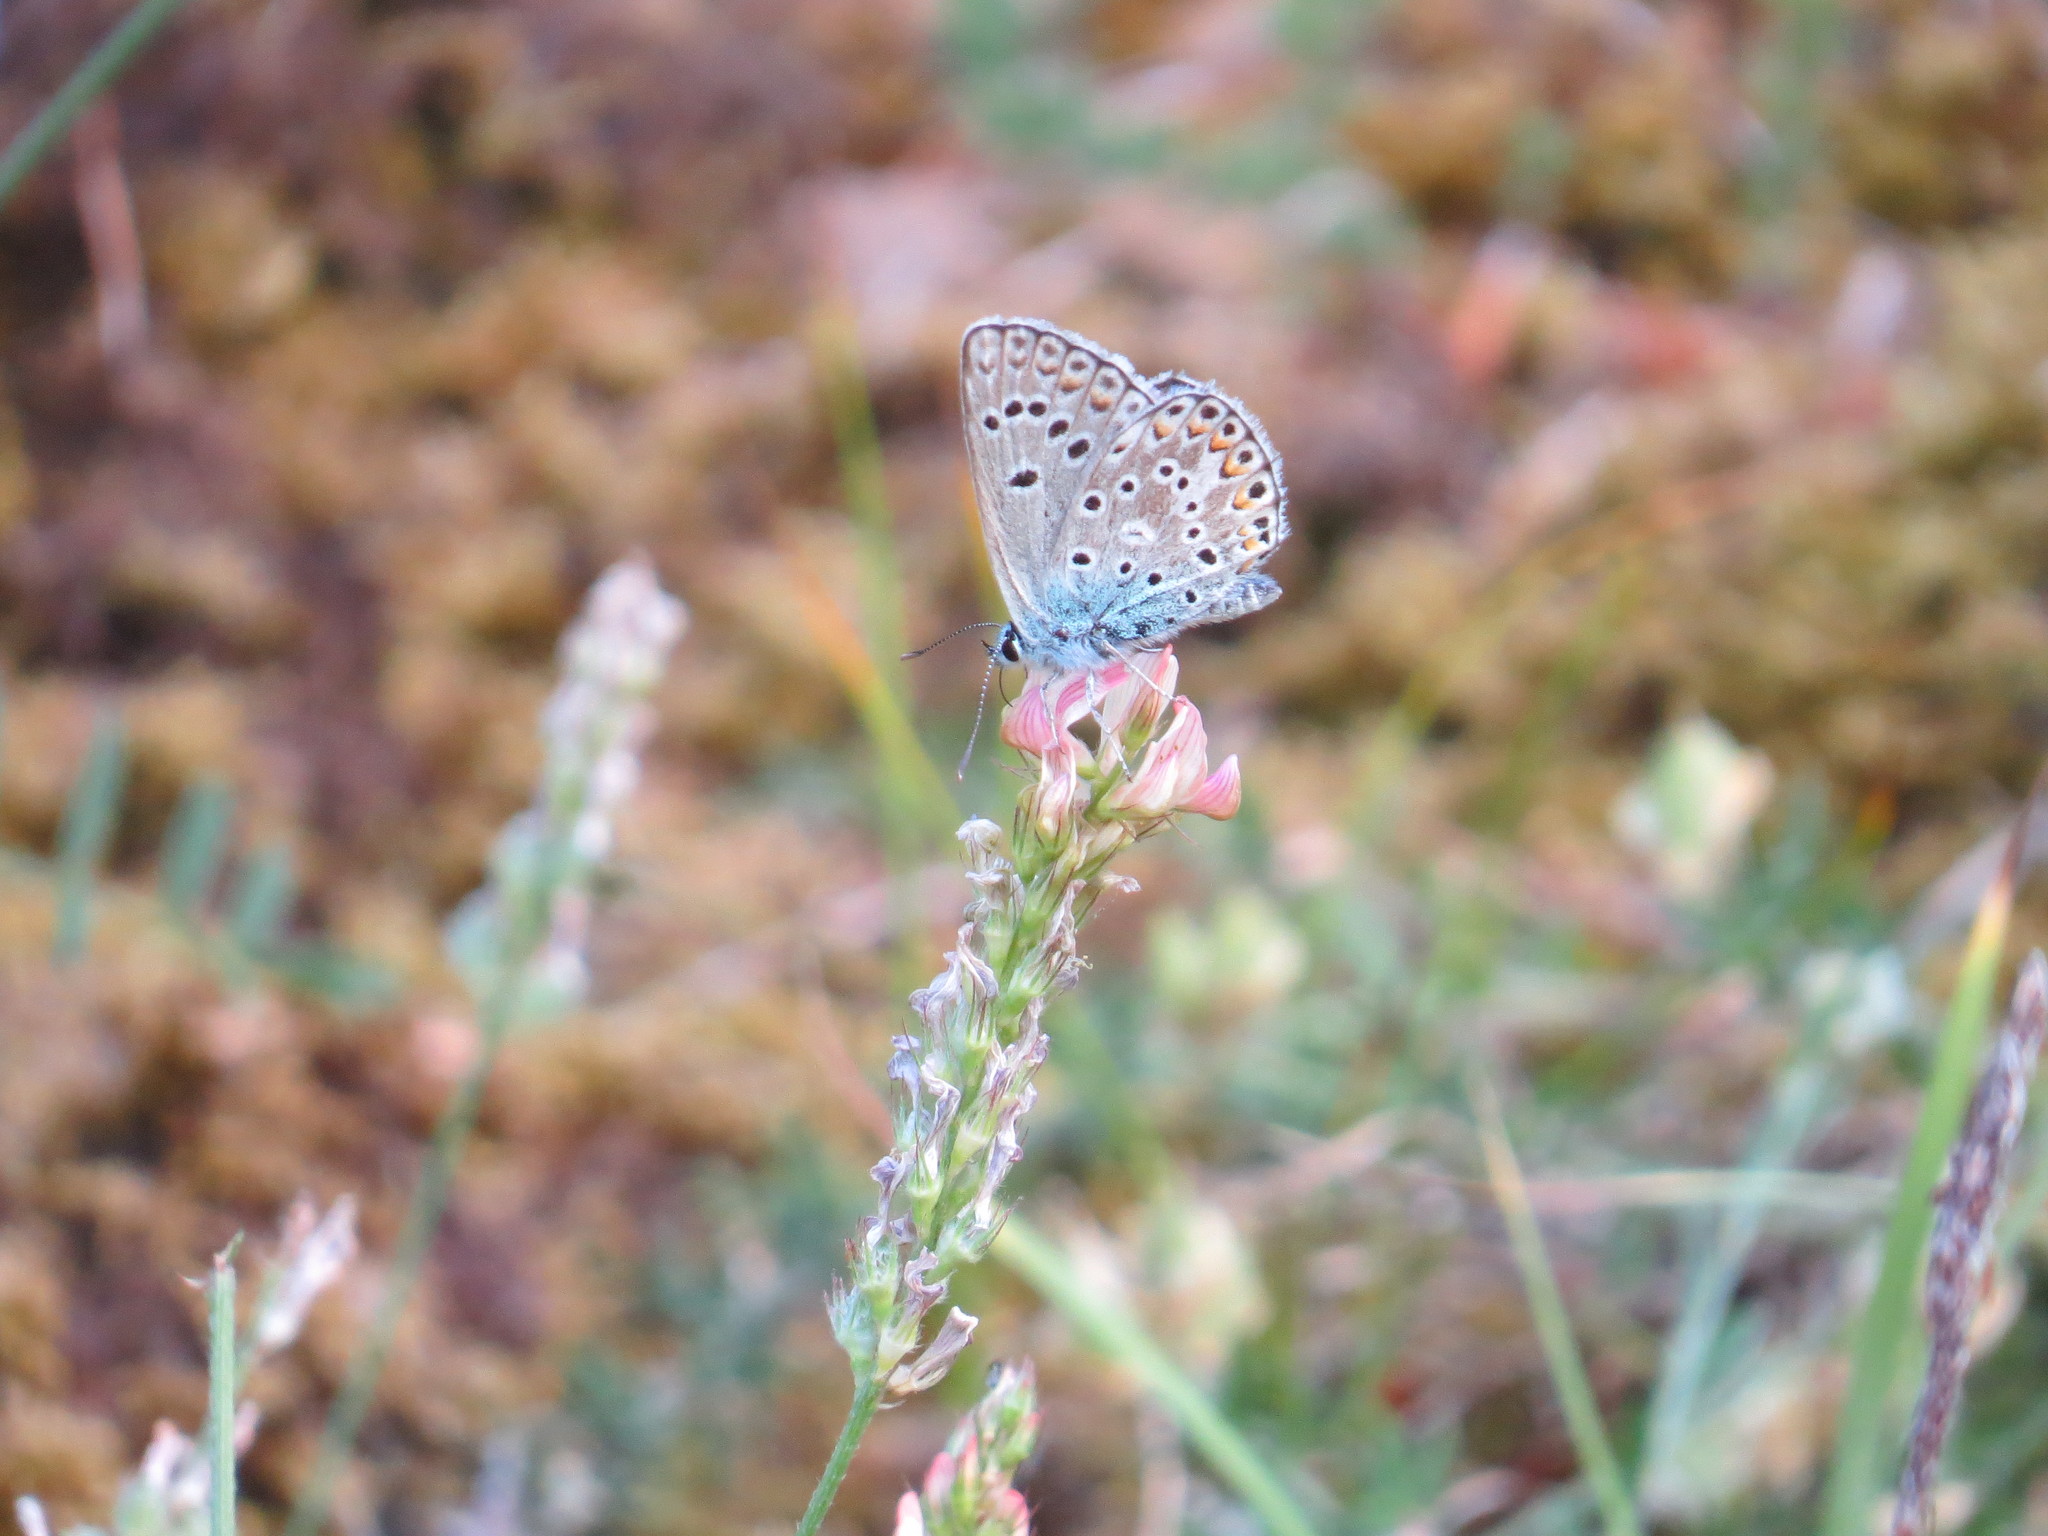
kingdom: Animalia
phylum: Arthropoda
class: Insecta
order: Lepidoptera
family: Lycaenidae
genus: Plebicula
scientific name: Plebicula escheri
